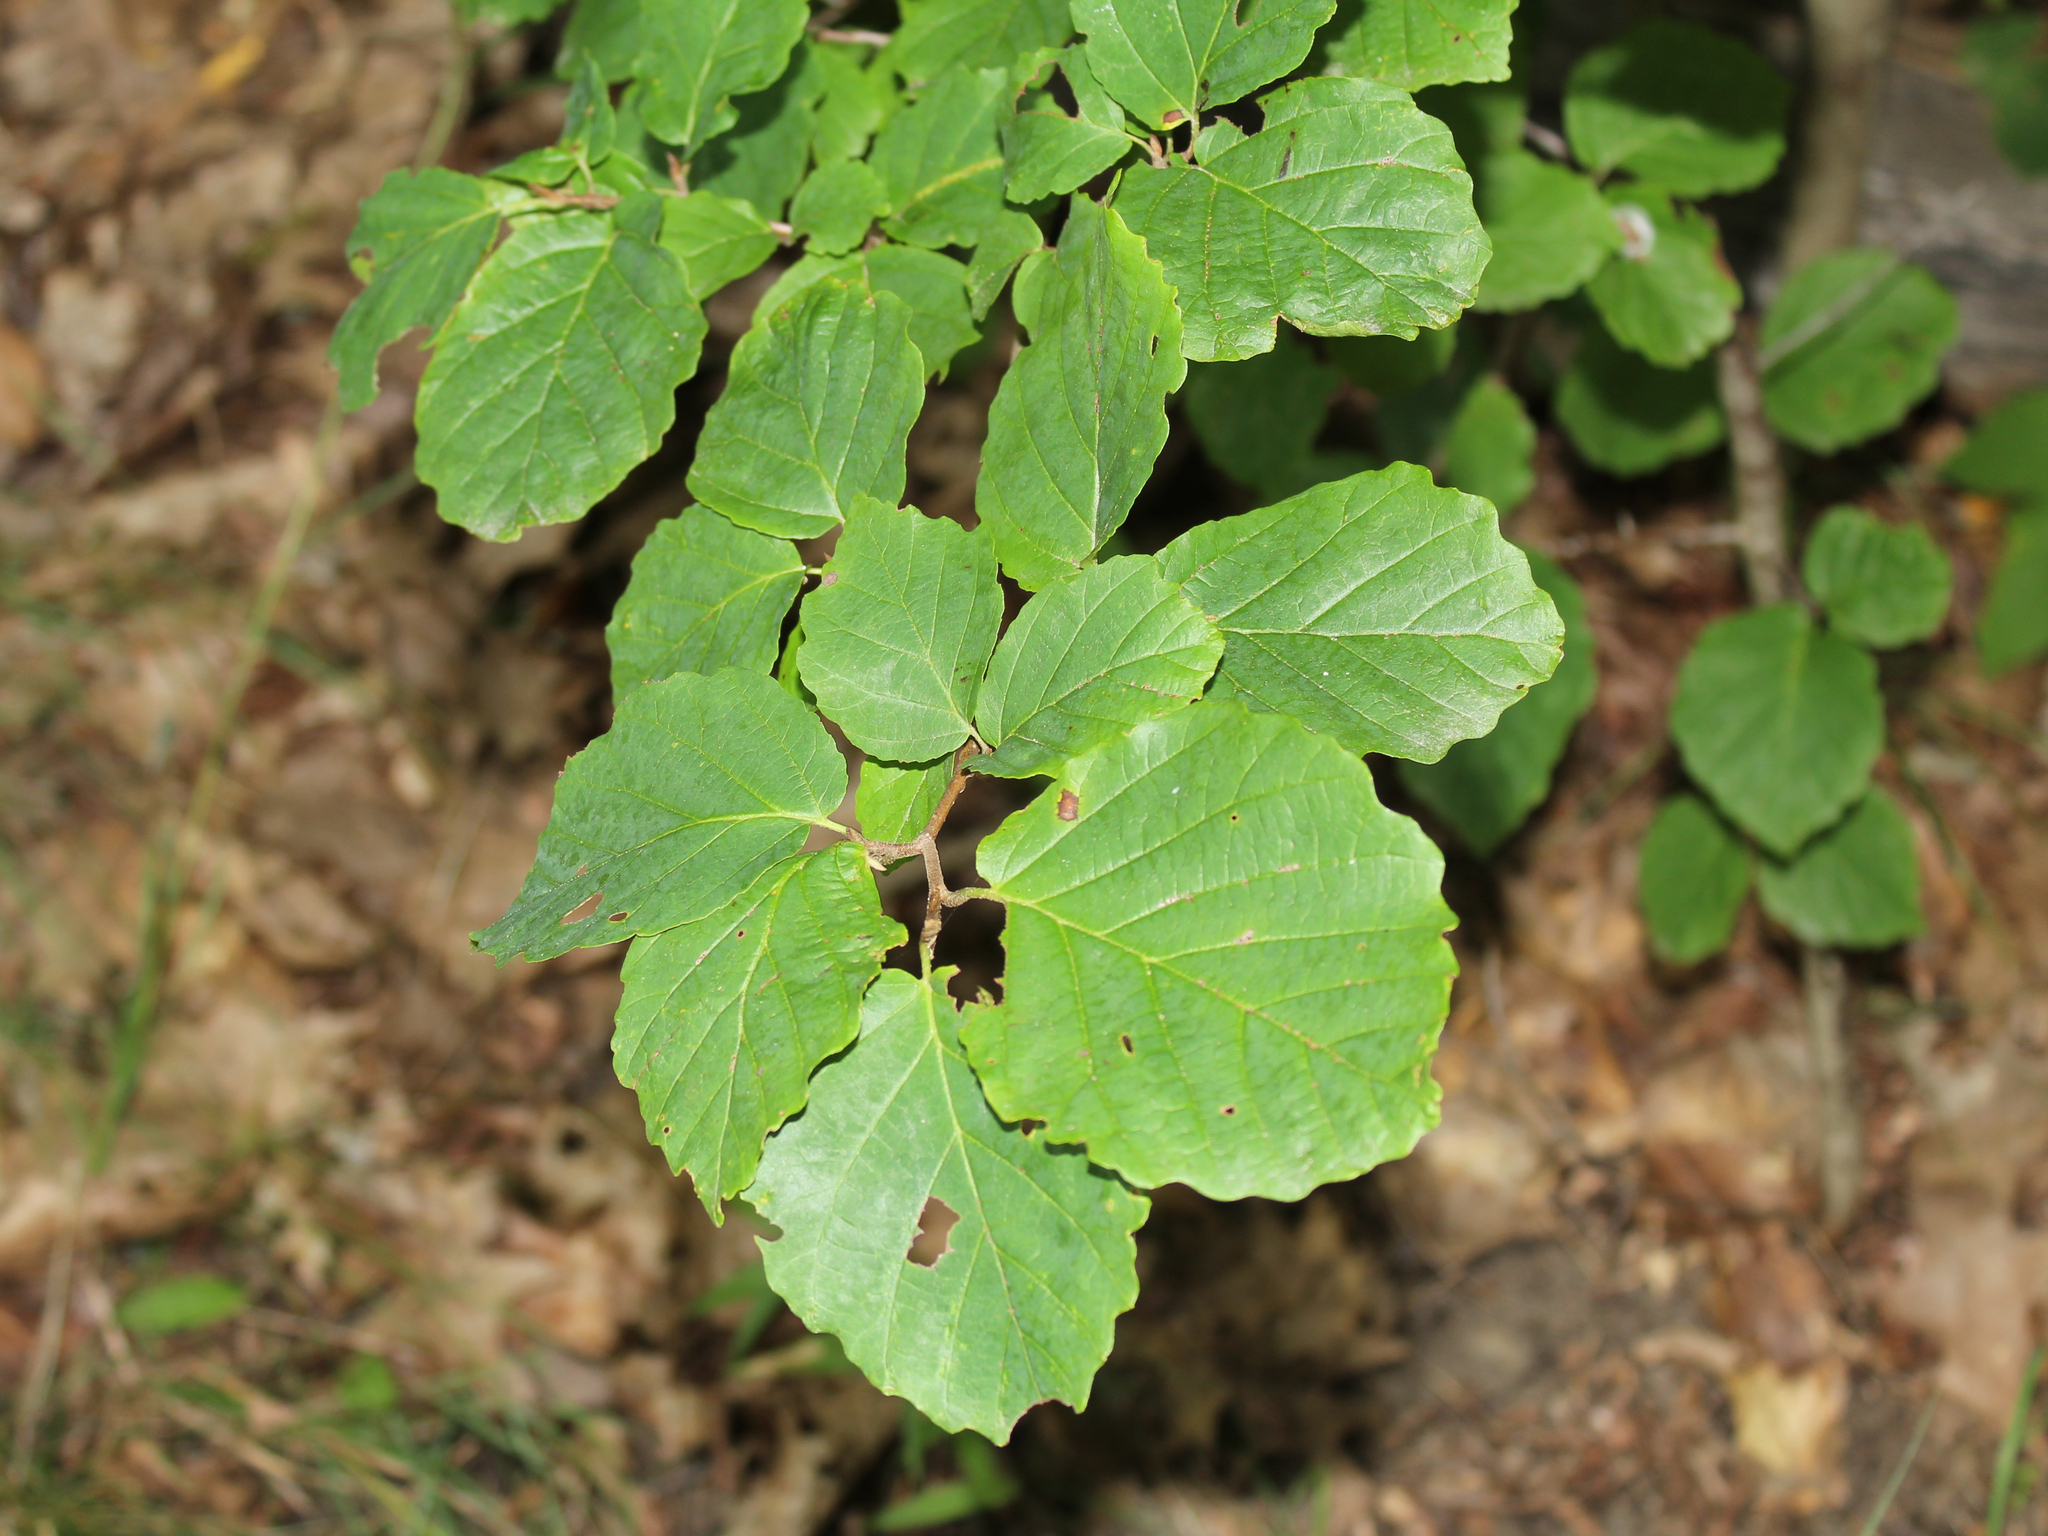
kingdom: Plantae
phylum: Tracheophyta
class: Magnoliopsida
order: Saxifragales
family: Hamamelidaceae
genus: Hamamelis
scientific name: Hamamelis virginiana
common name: Witch-hazel
